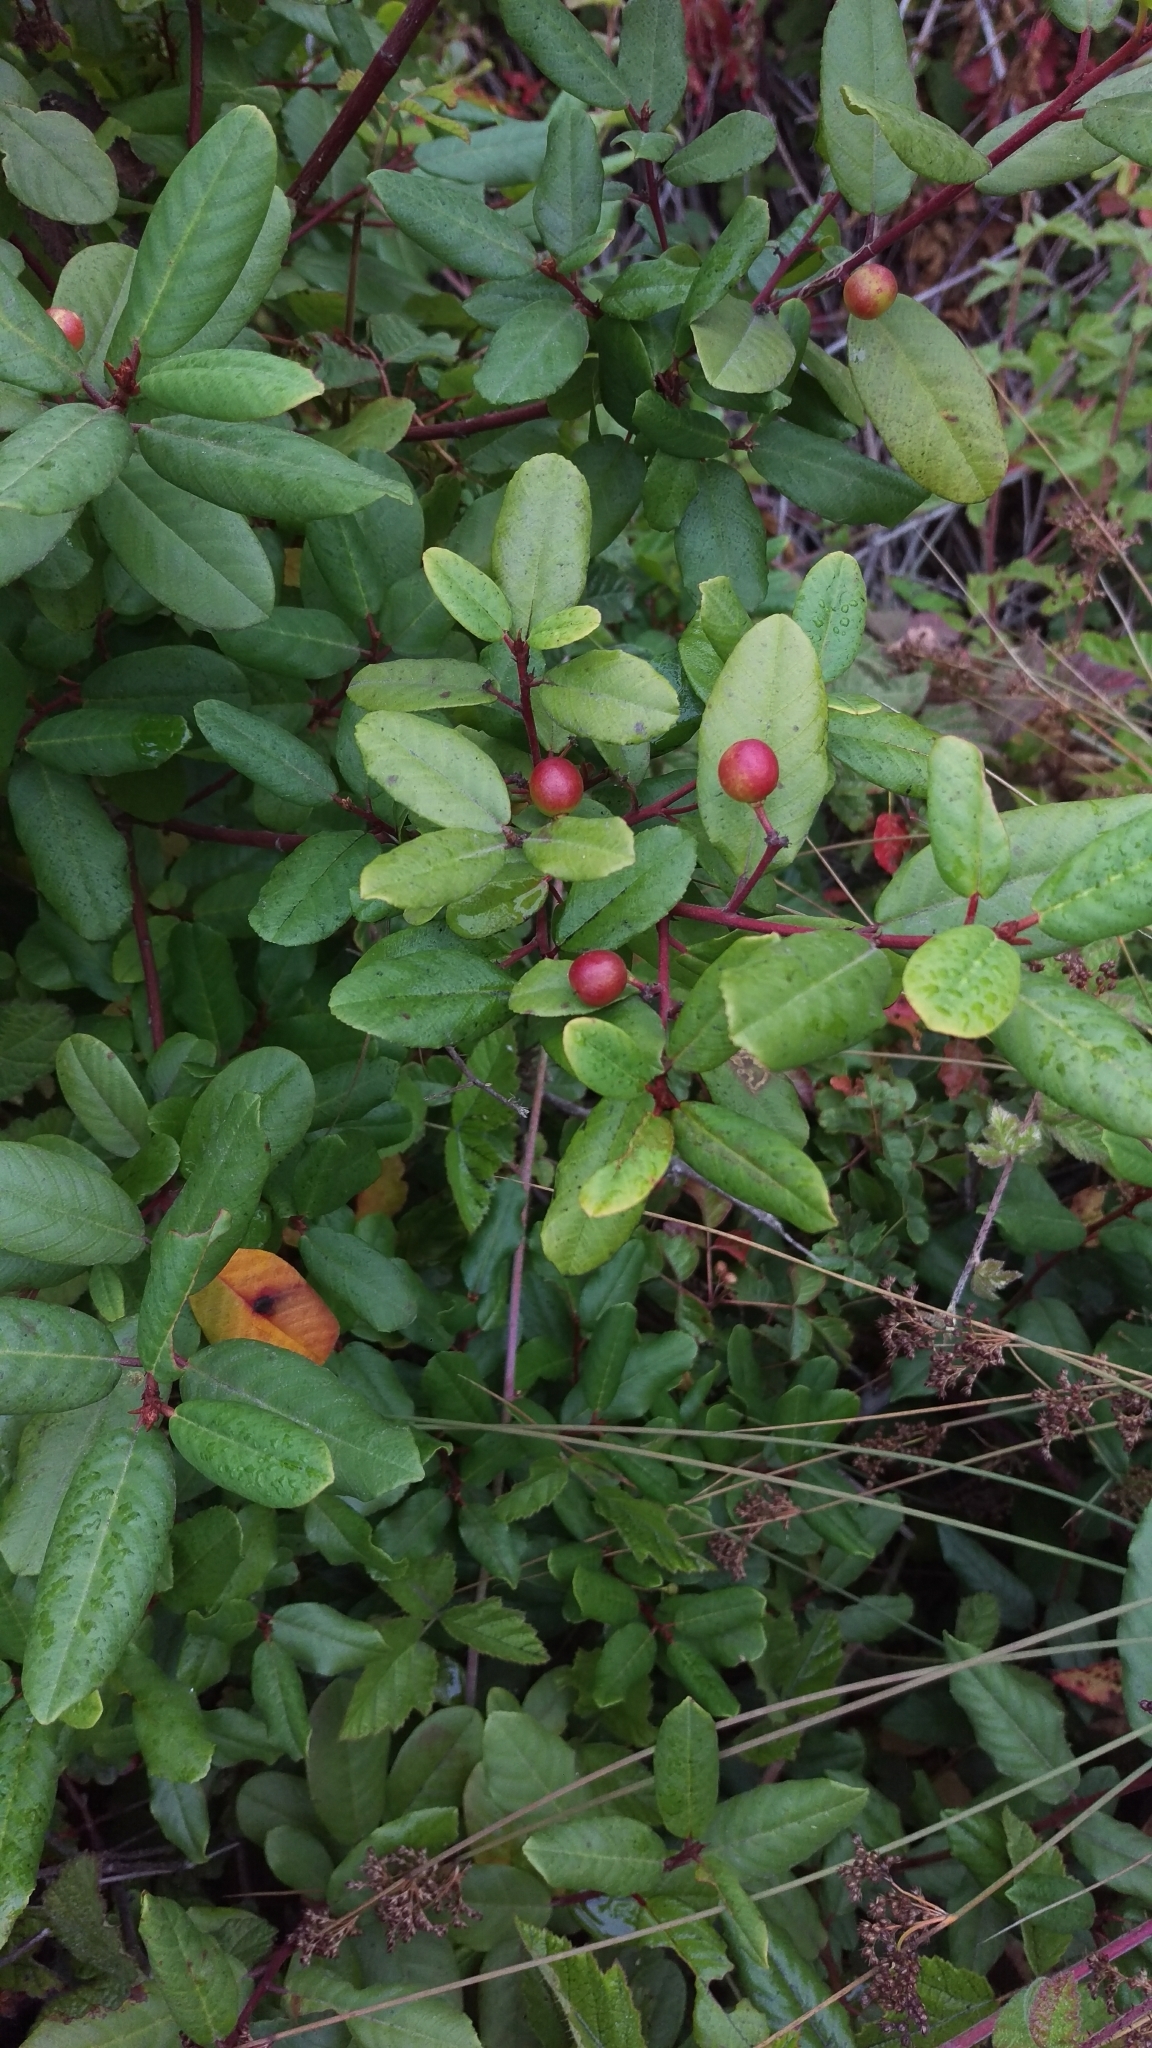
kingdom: Plantae
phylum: Tracheophyta
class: Magnoliopsida
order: Rosales
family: Rhamnaceae
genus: Frangula
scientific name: Frangula californica
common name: California buckthorn
